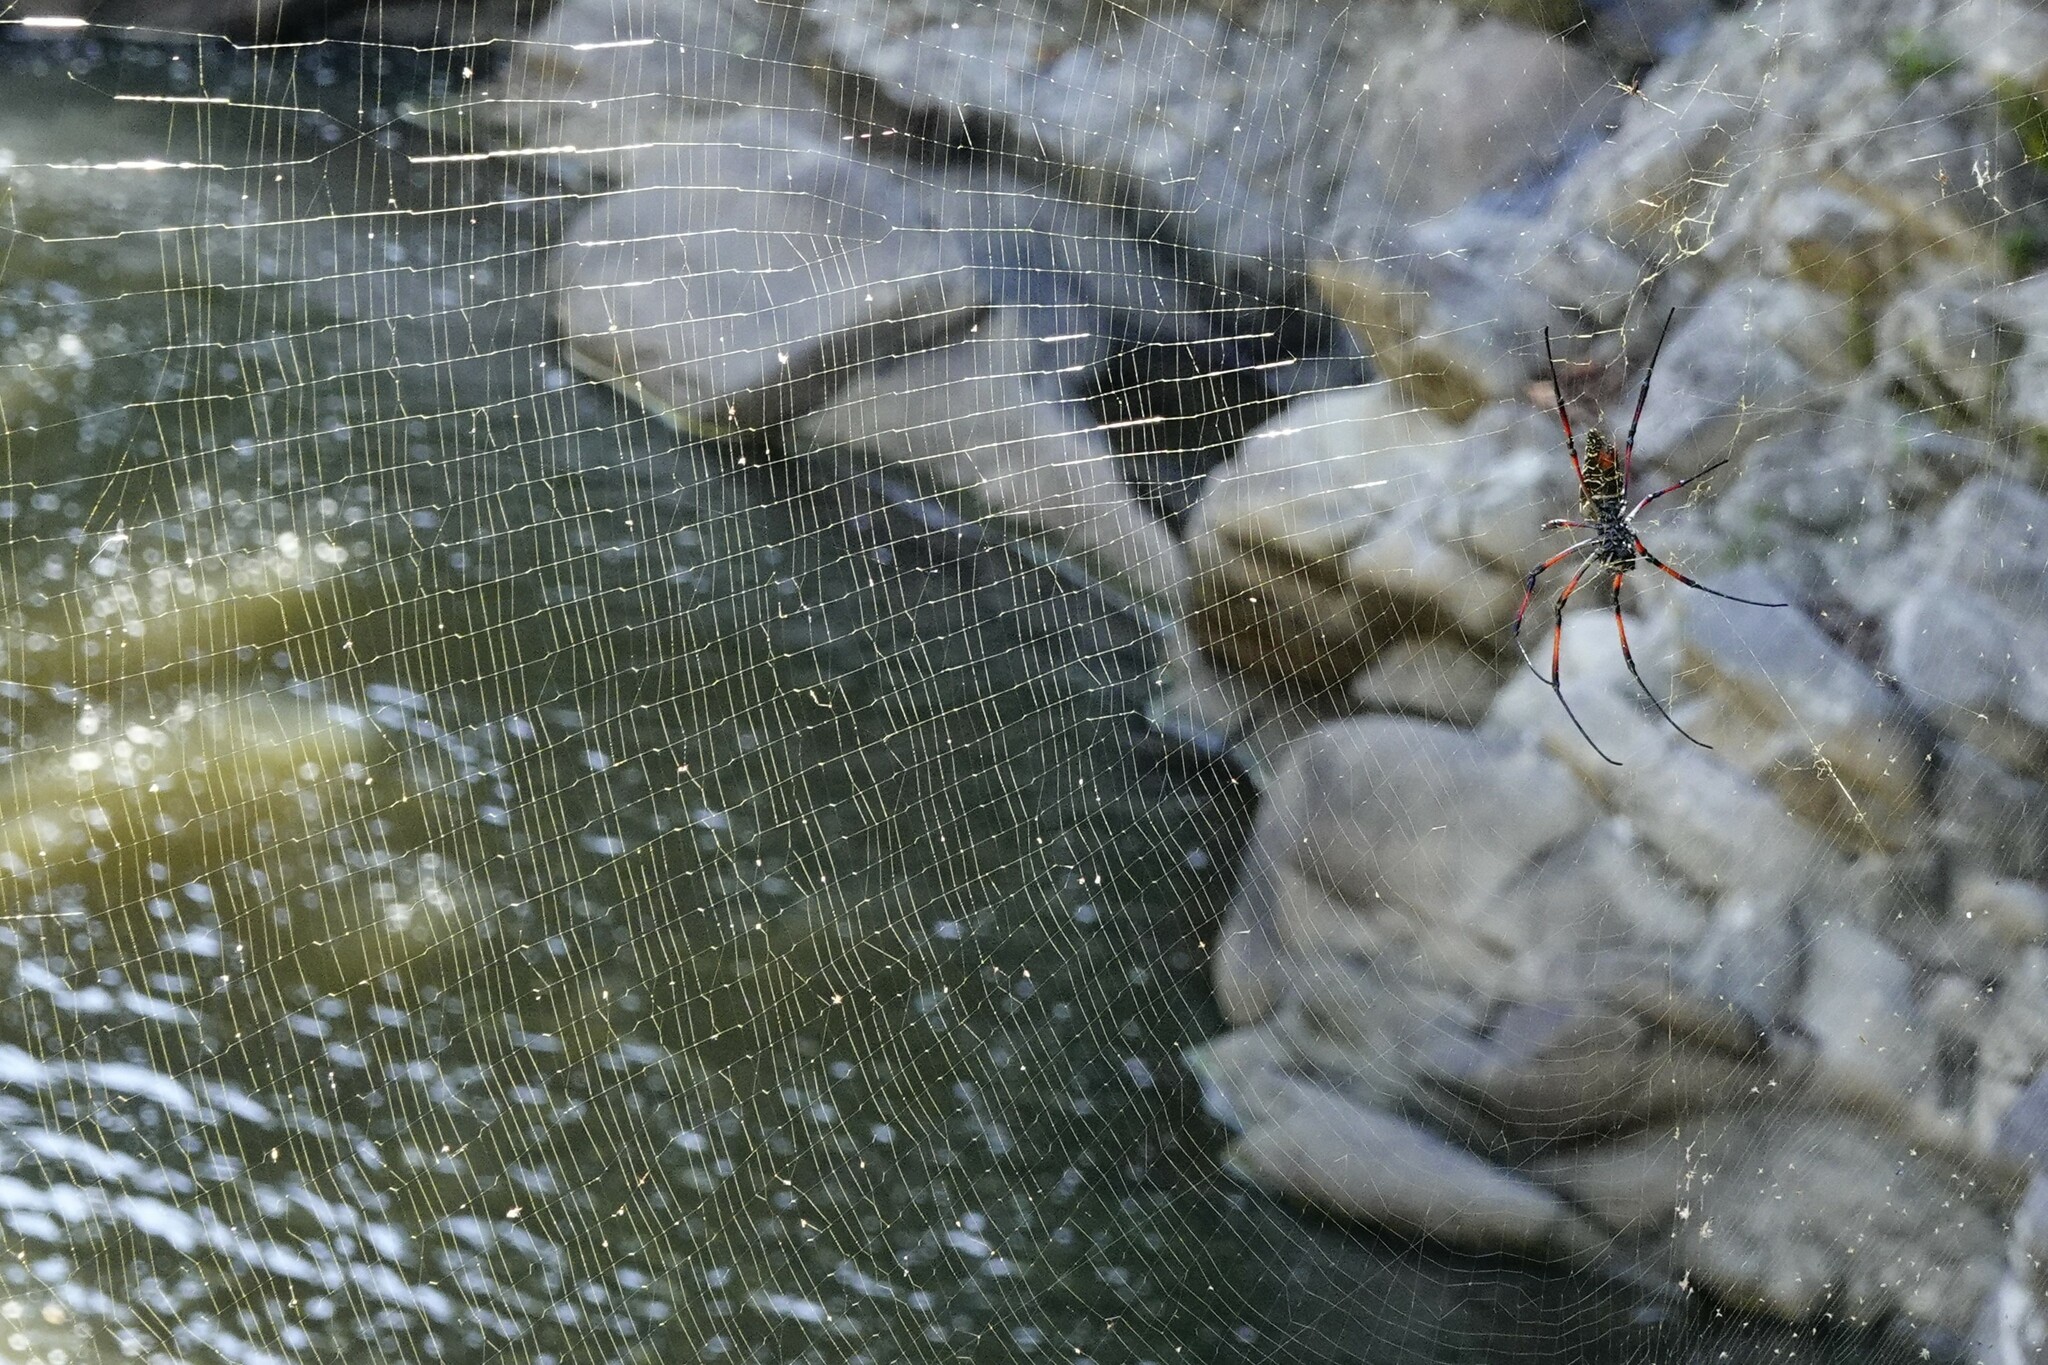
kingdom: Animalia
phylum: Arthropoda
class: Arachnida
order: Araneae
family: Araneidae
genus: Trichonephila
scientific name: Trichonephila inaurata
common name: Red-legged golden orb weaver
